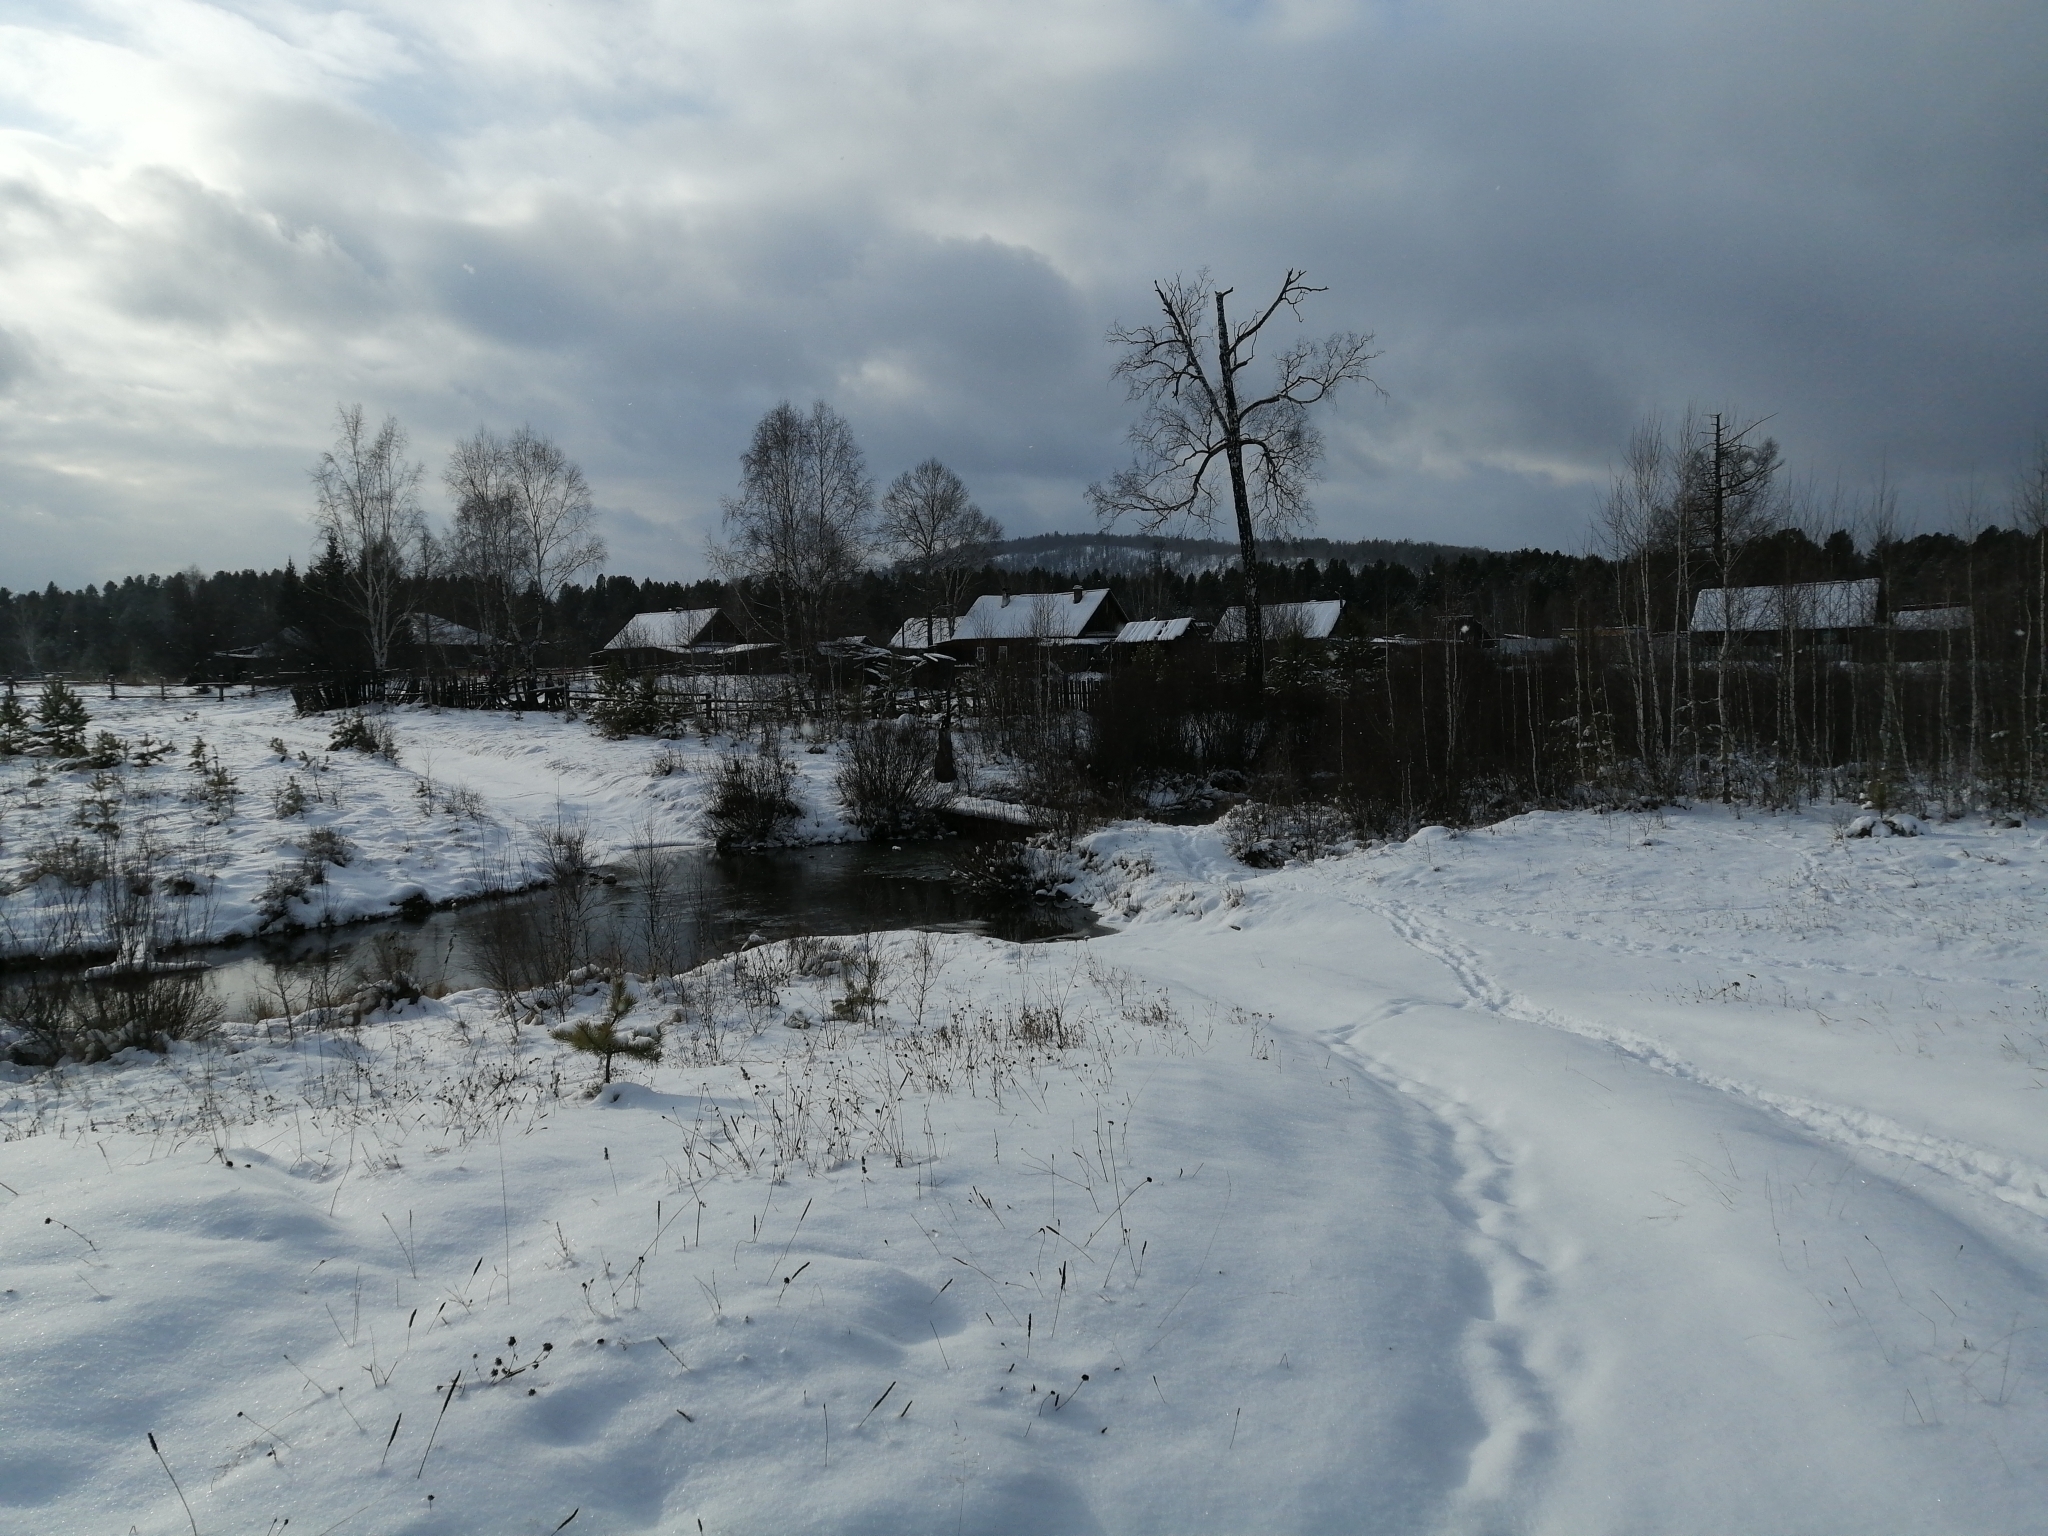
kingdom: Plantae
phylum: Tracheophyta
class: Pinopsida
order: Pinales
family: Pinaceae
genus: Pinus
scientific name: Pinus sylvestris
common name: Scots pine
